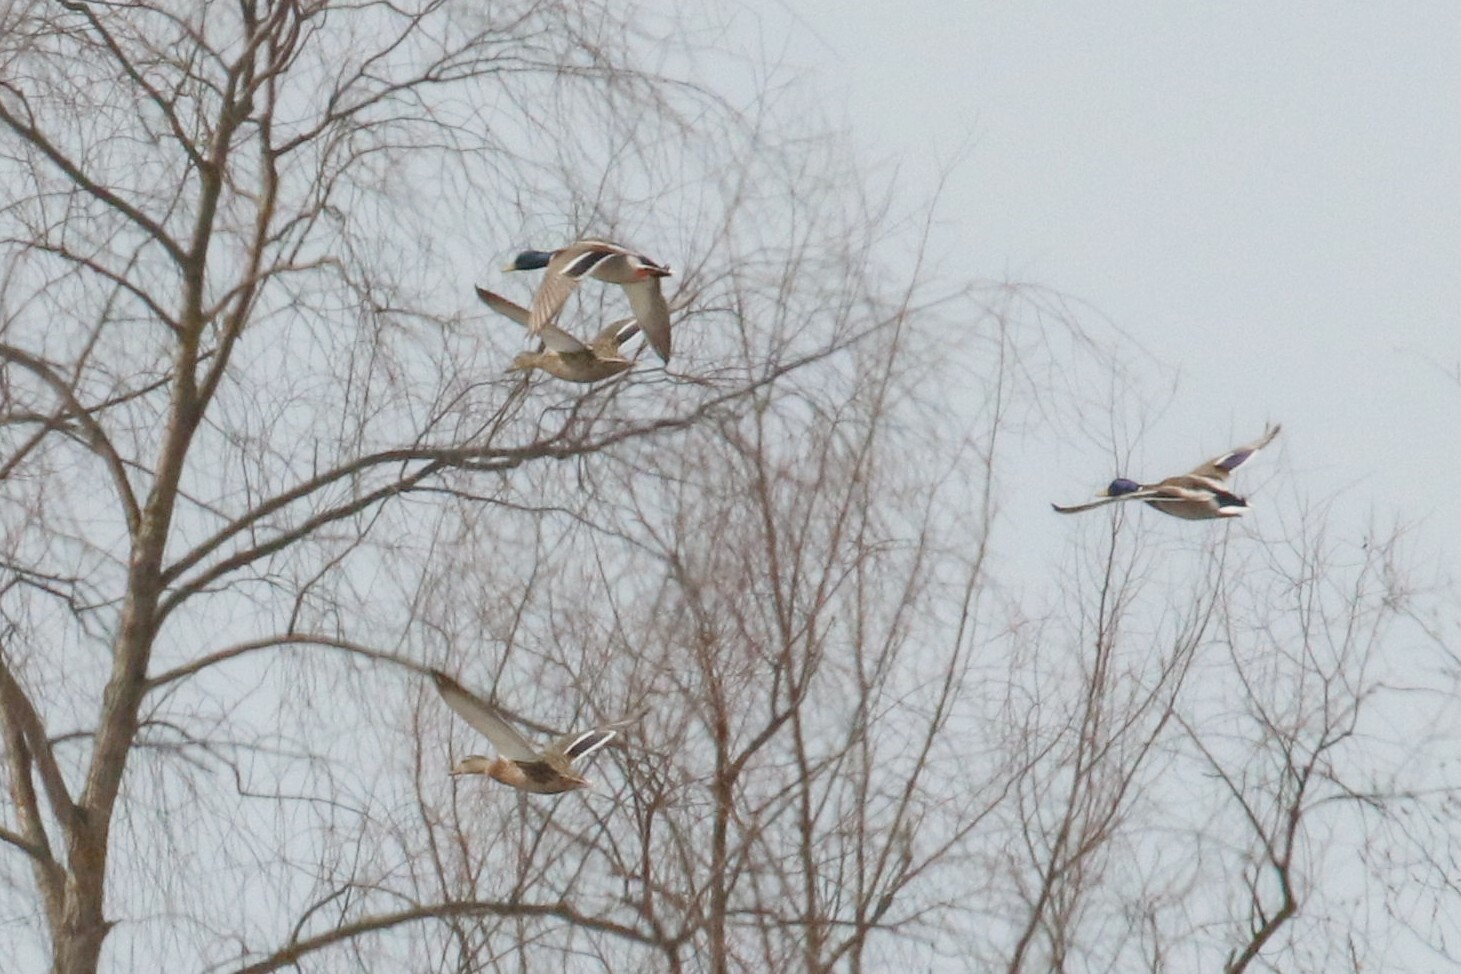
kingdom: Animalia
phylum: Chordata
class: Aves
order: Anseriformes
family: Anatidae
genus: Anas
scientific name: Anas platyrhynchos
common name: Mallard
